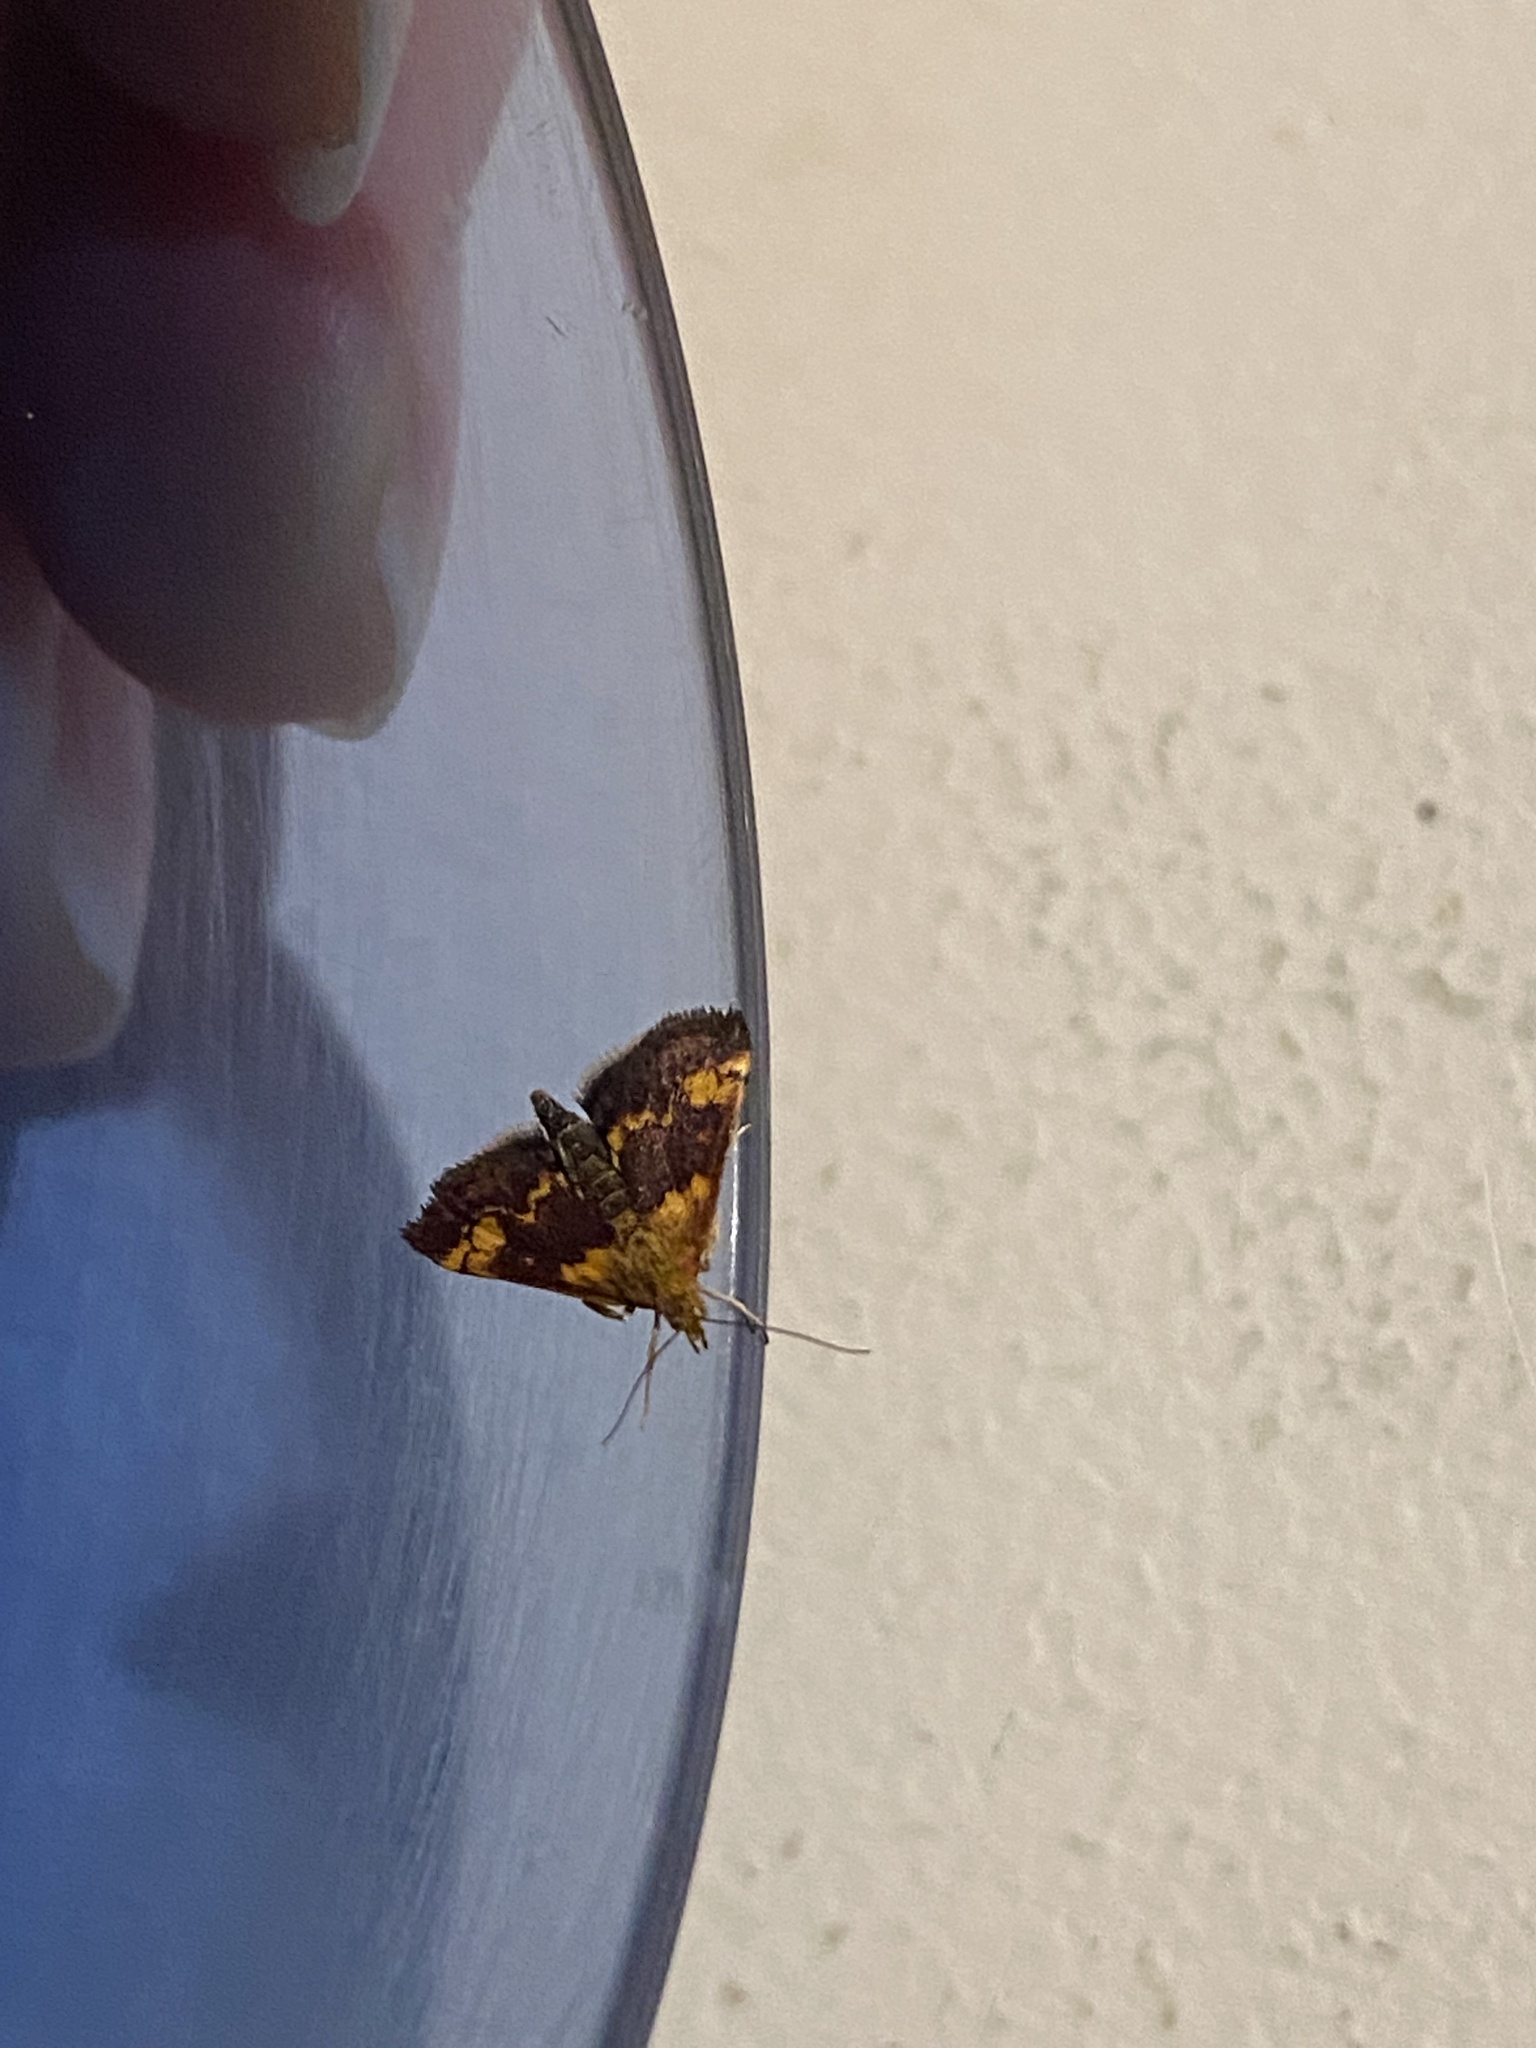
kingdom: Animalia
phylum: Arthropoda
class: Insecta
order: Lepidoptera
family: Crambidae
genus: Pyrausta
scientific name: Pyrausta orphisalis
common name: Orange mint moth
